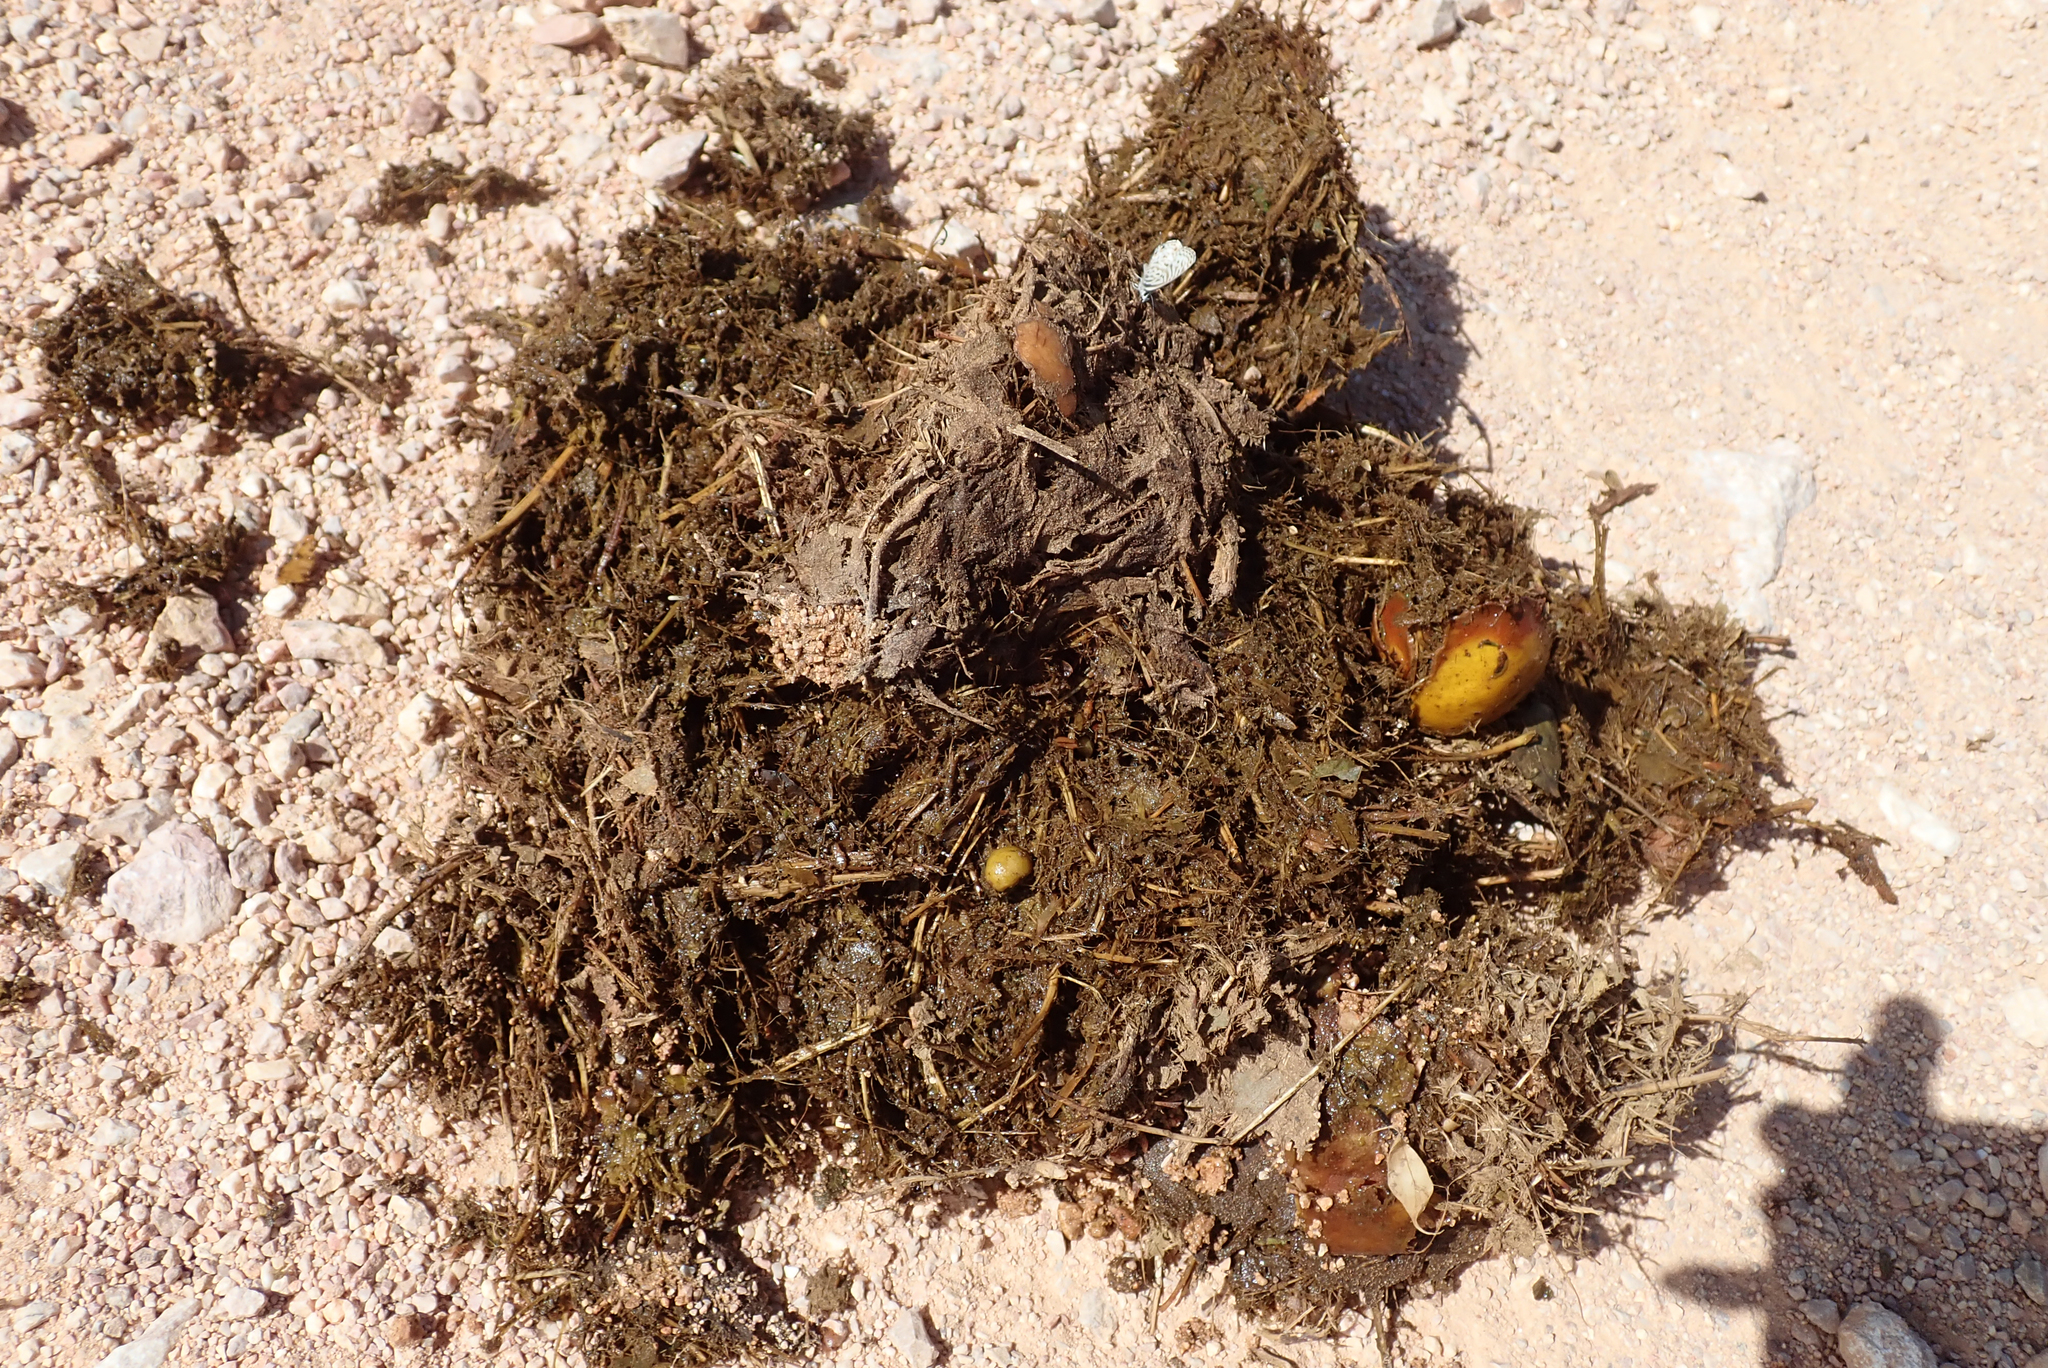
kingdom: Animalia
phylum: Chordata
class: Mammalia
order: Proboscidea
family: Elephantidae
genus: Loxodonta
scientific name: Loxodonta africana
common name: African elephant
